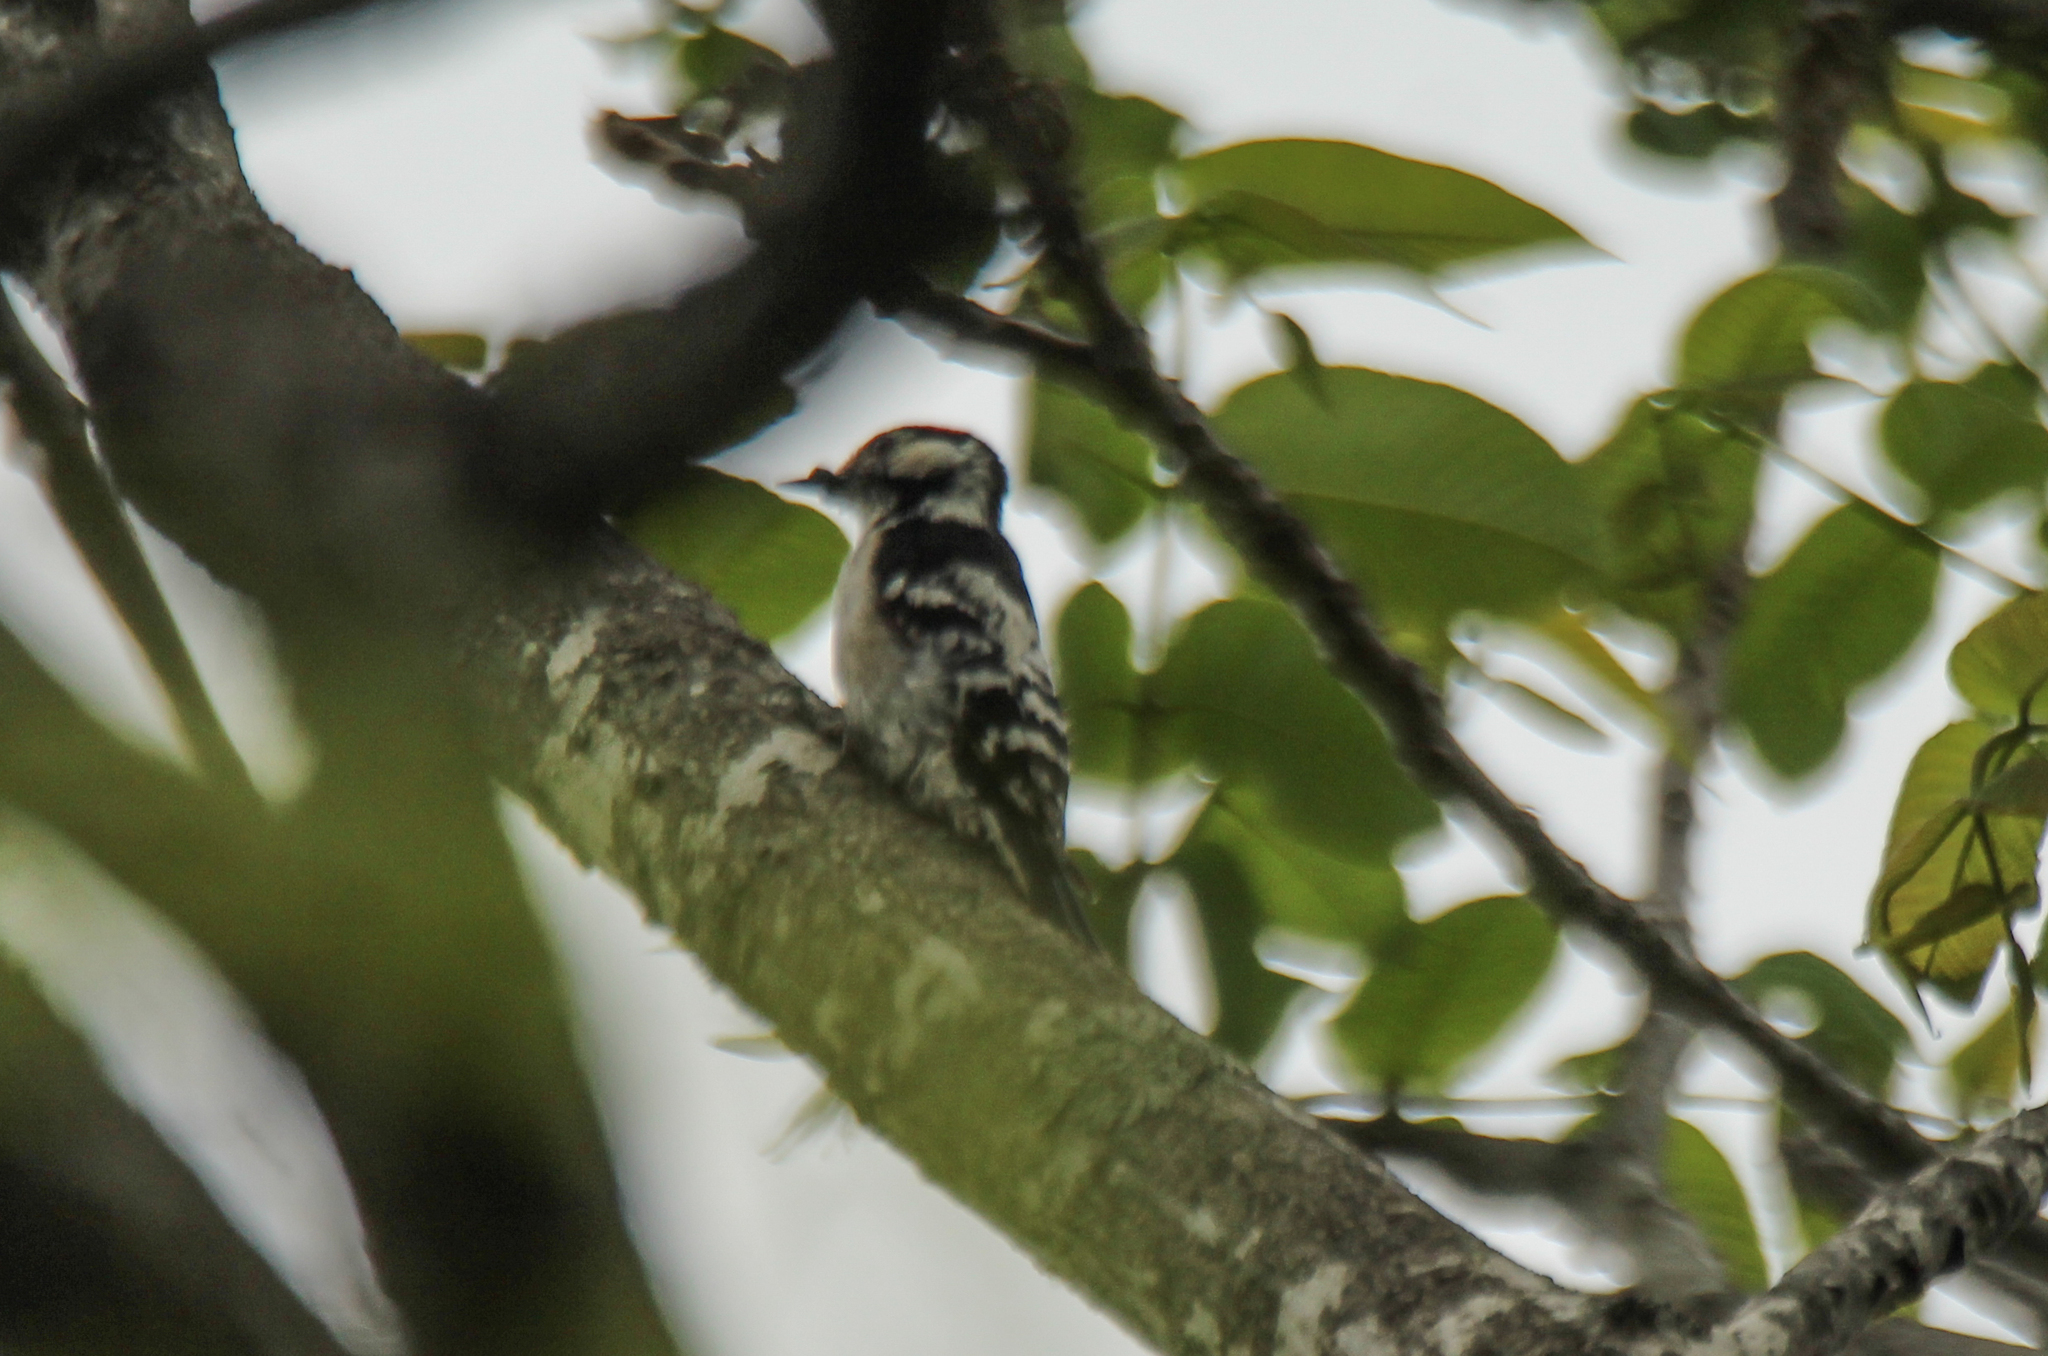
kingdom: Animalia
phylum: Chordata
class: Aves
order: Piciformes
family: Picidae
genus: Dryobates
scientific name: Dryobates minor
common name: Lesser spotted woodpecker
